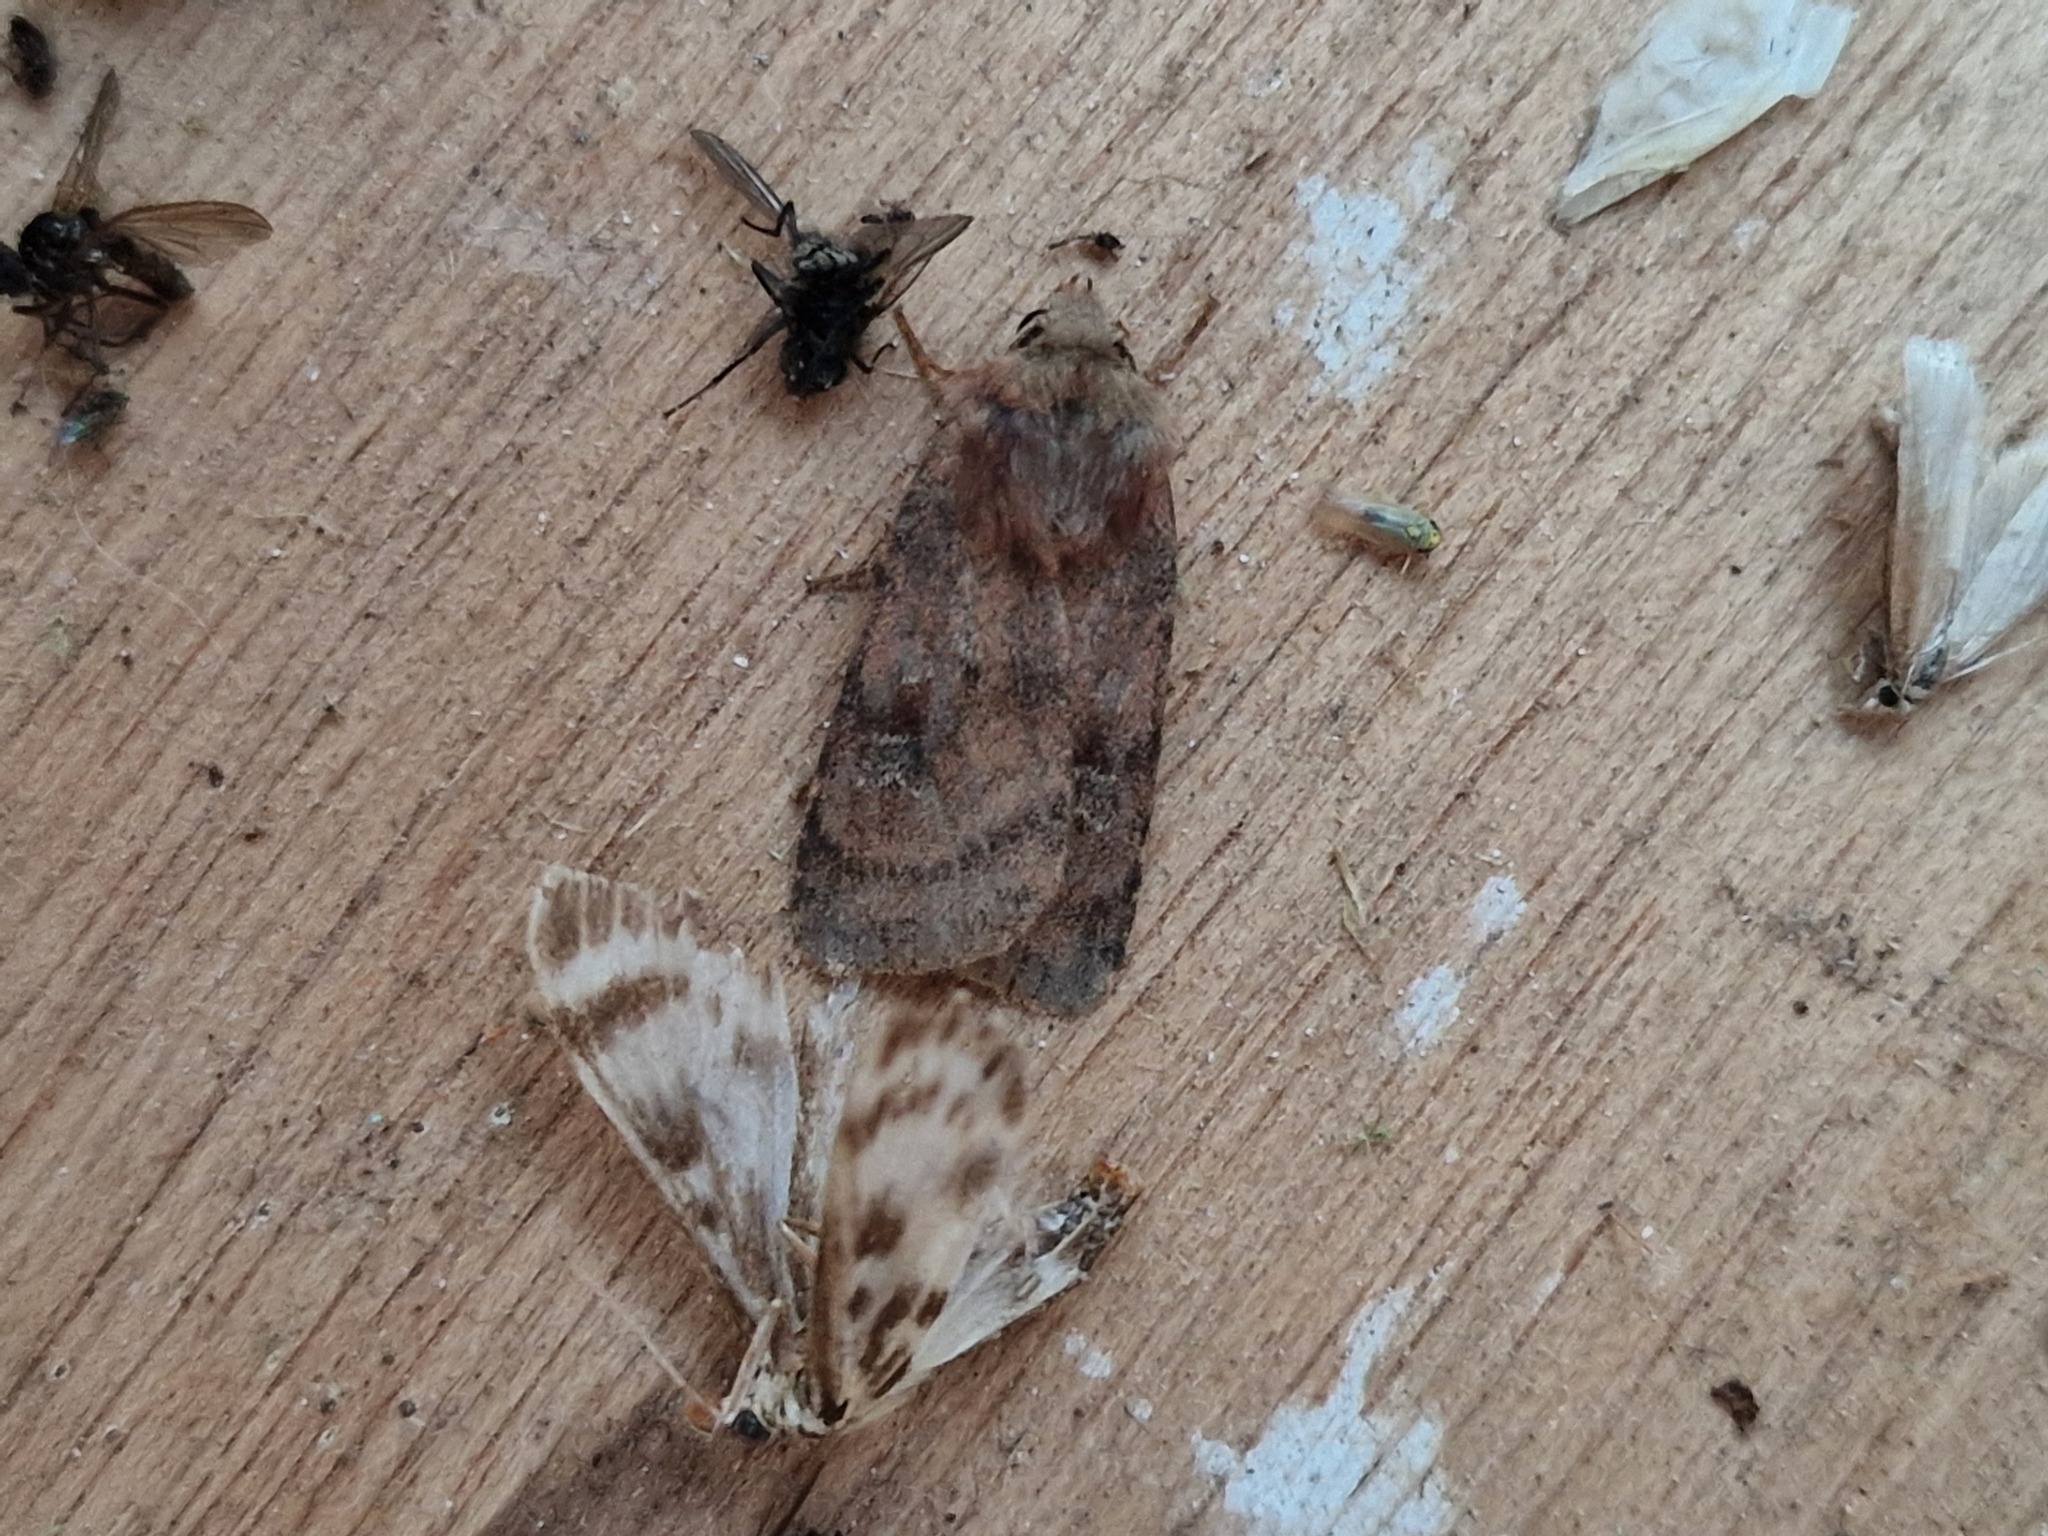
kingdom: Animalia
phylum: Arthropoda
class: Insecta
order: Lepidoptera
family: Noctuidae
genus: Diarsia
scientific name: Diarsia rubi
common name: Small square-spot
